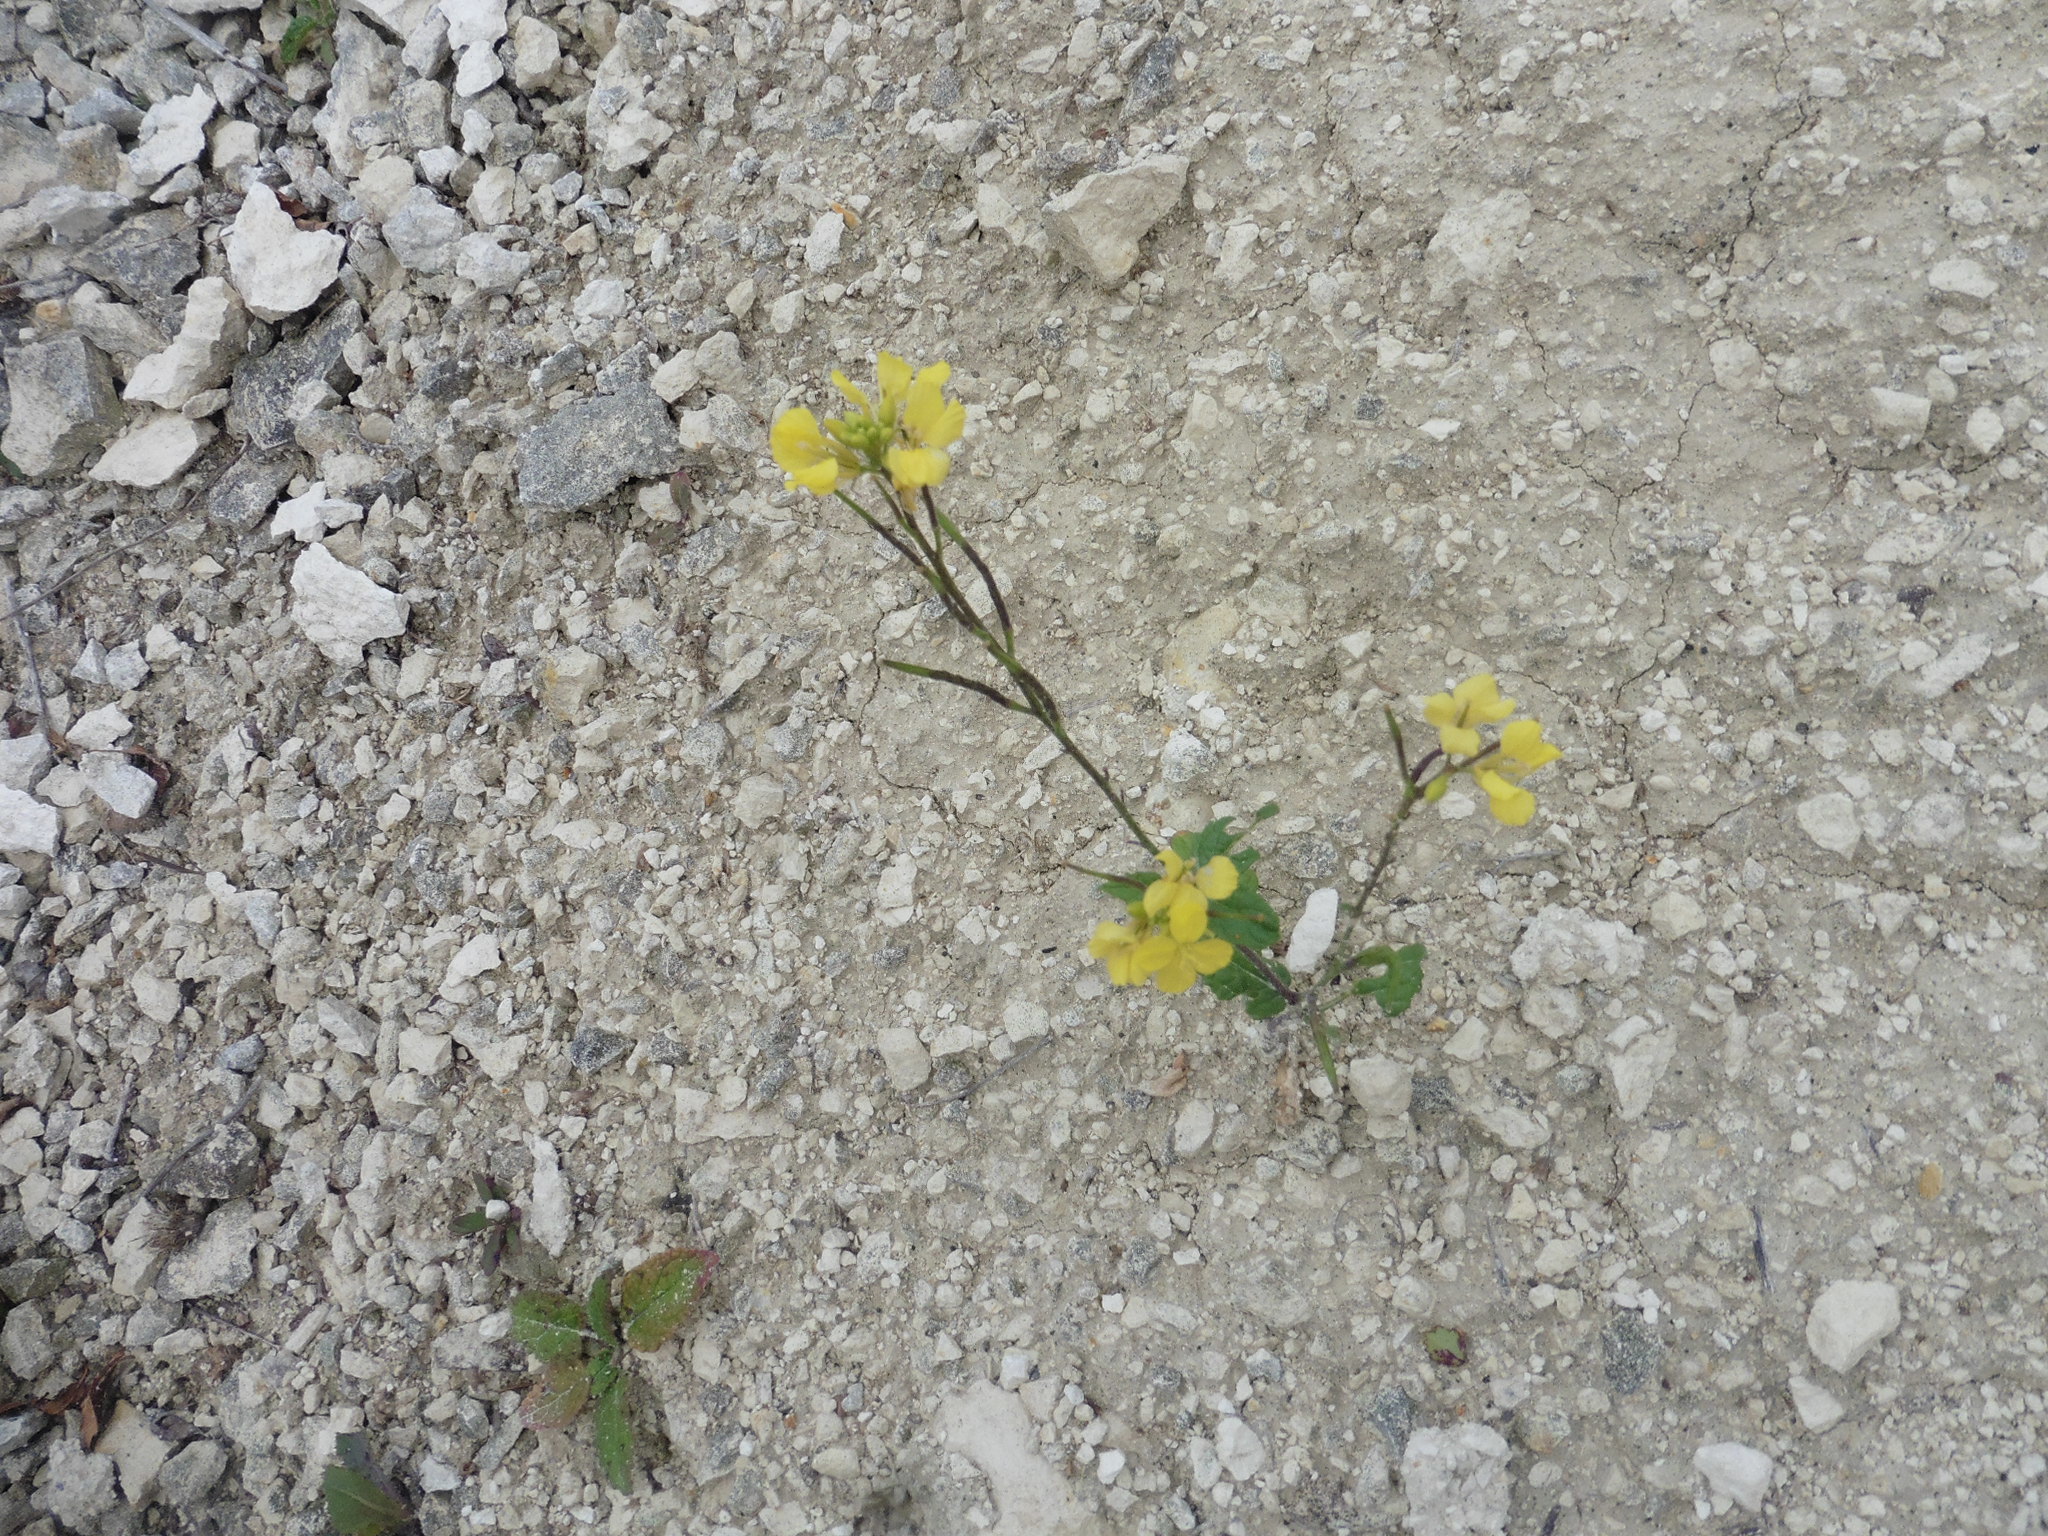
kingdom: Plantae
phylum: Tracheophyta
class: Magnoliopsida
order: Brassicales
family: Brassicaceae
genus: Sinapis
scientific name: Sinapis arvensis
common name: Charlock
